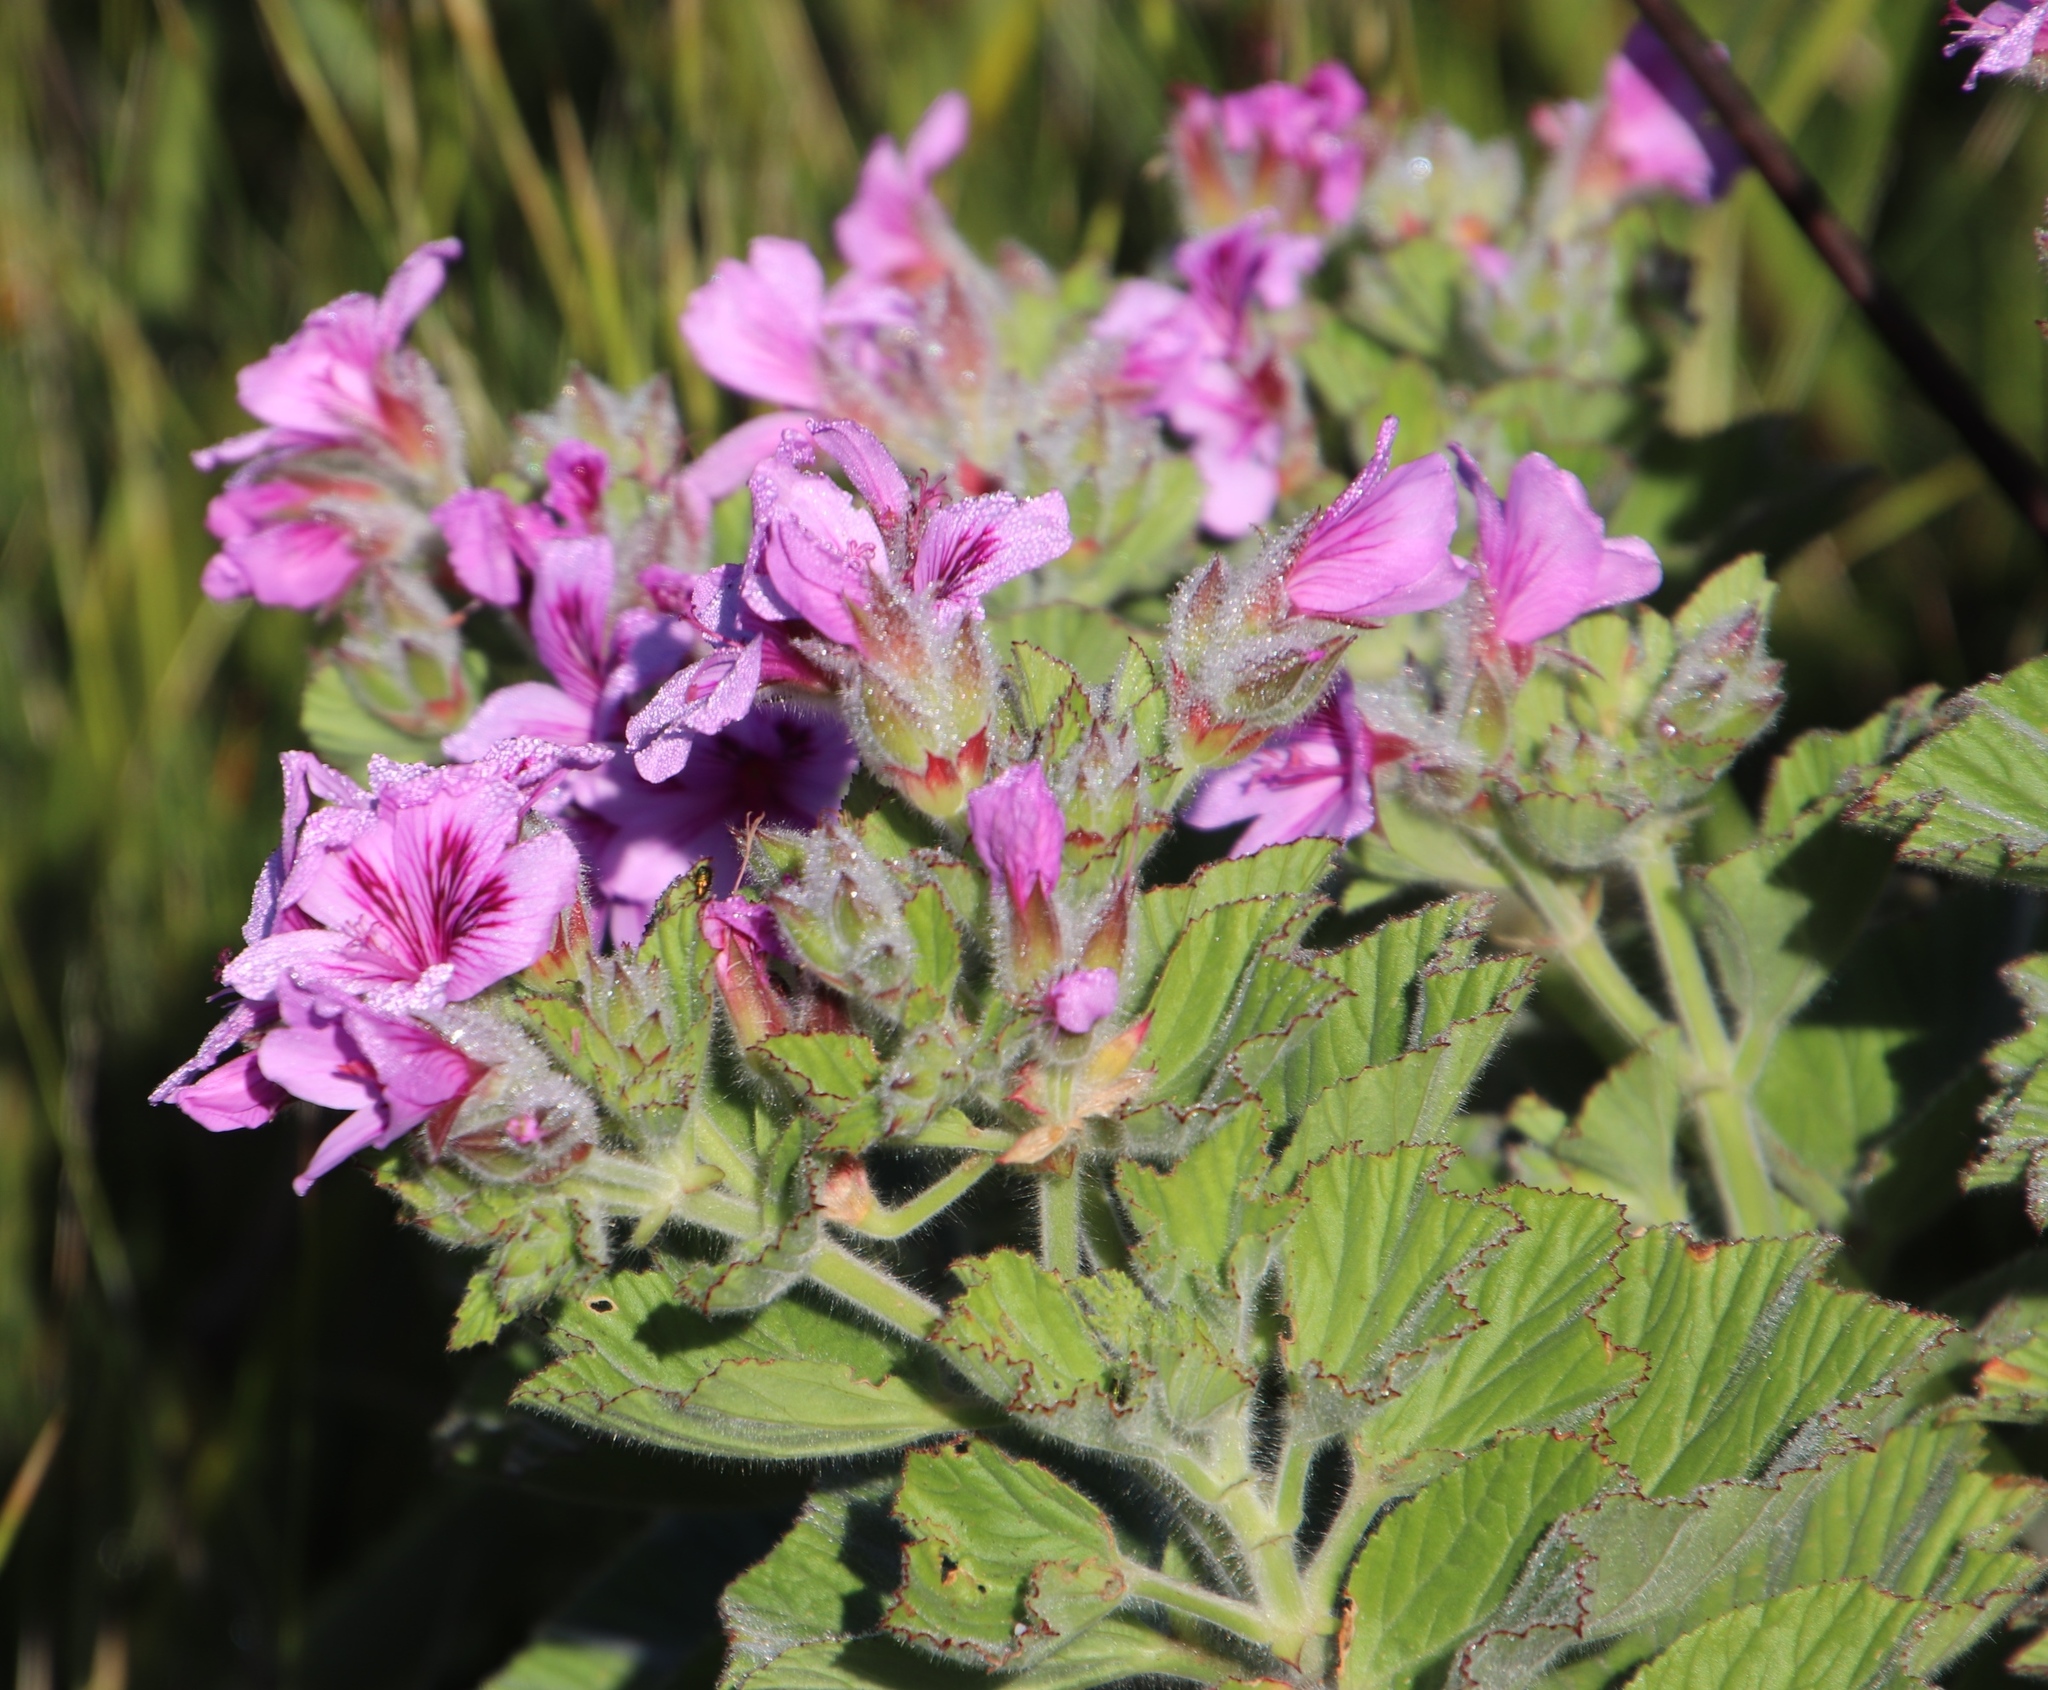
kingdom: Plantae
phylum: Tracheophyta
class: Magnoliopsida
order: Geraniales
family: Geraniaceae
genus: Pelargonium
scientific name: Pelargonium cucullatum
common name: Tree pelargonium
